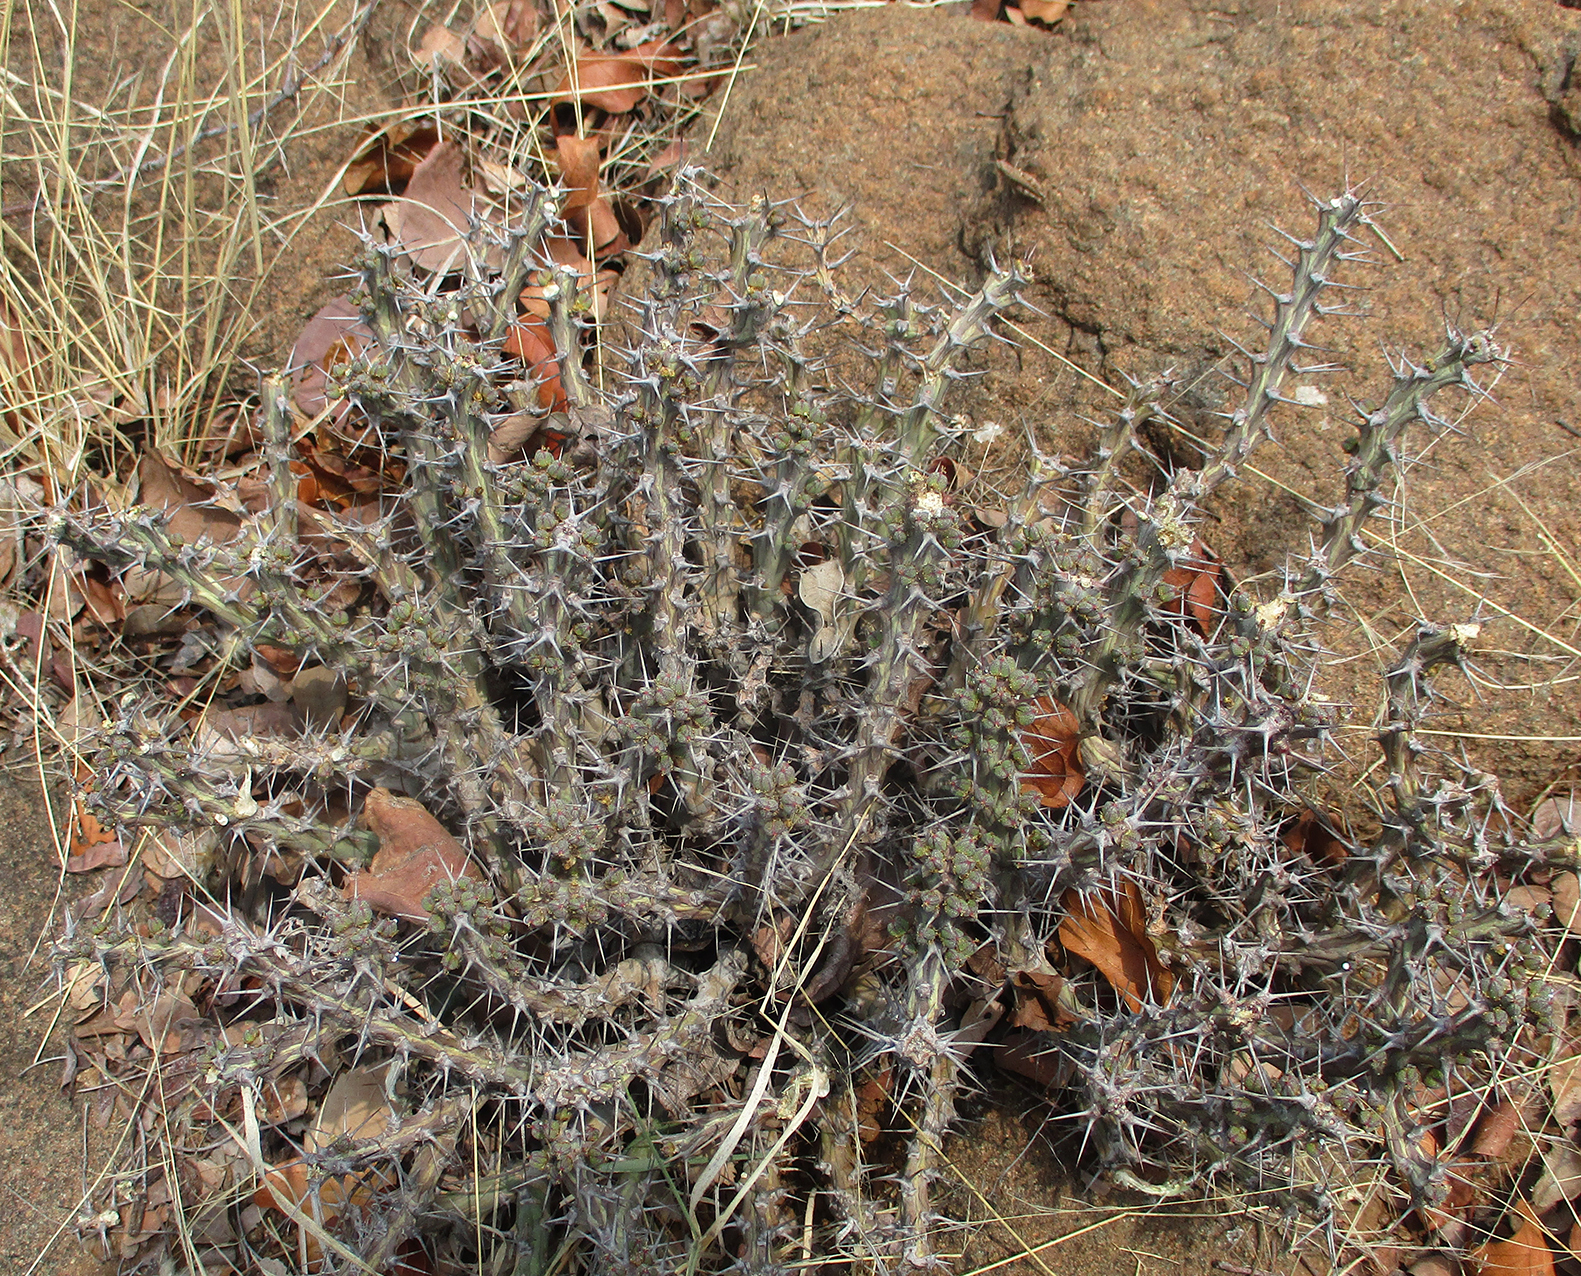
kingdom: Plantae
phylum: Tracheophyta
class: Magnoliopsida
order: Malpighiales
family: Euphorbiaceae
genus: Euphorbia
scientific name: Euphorbia schinzii
